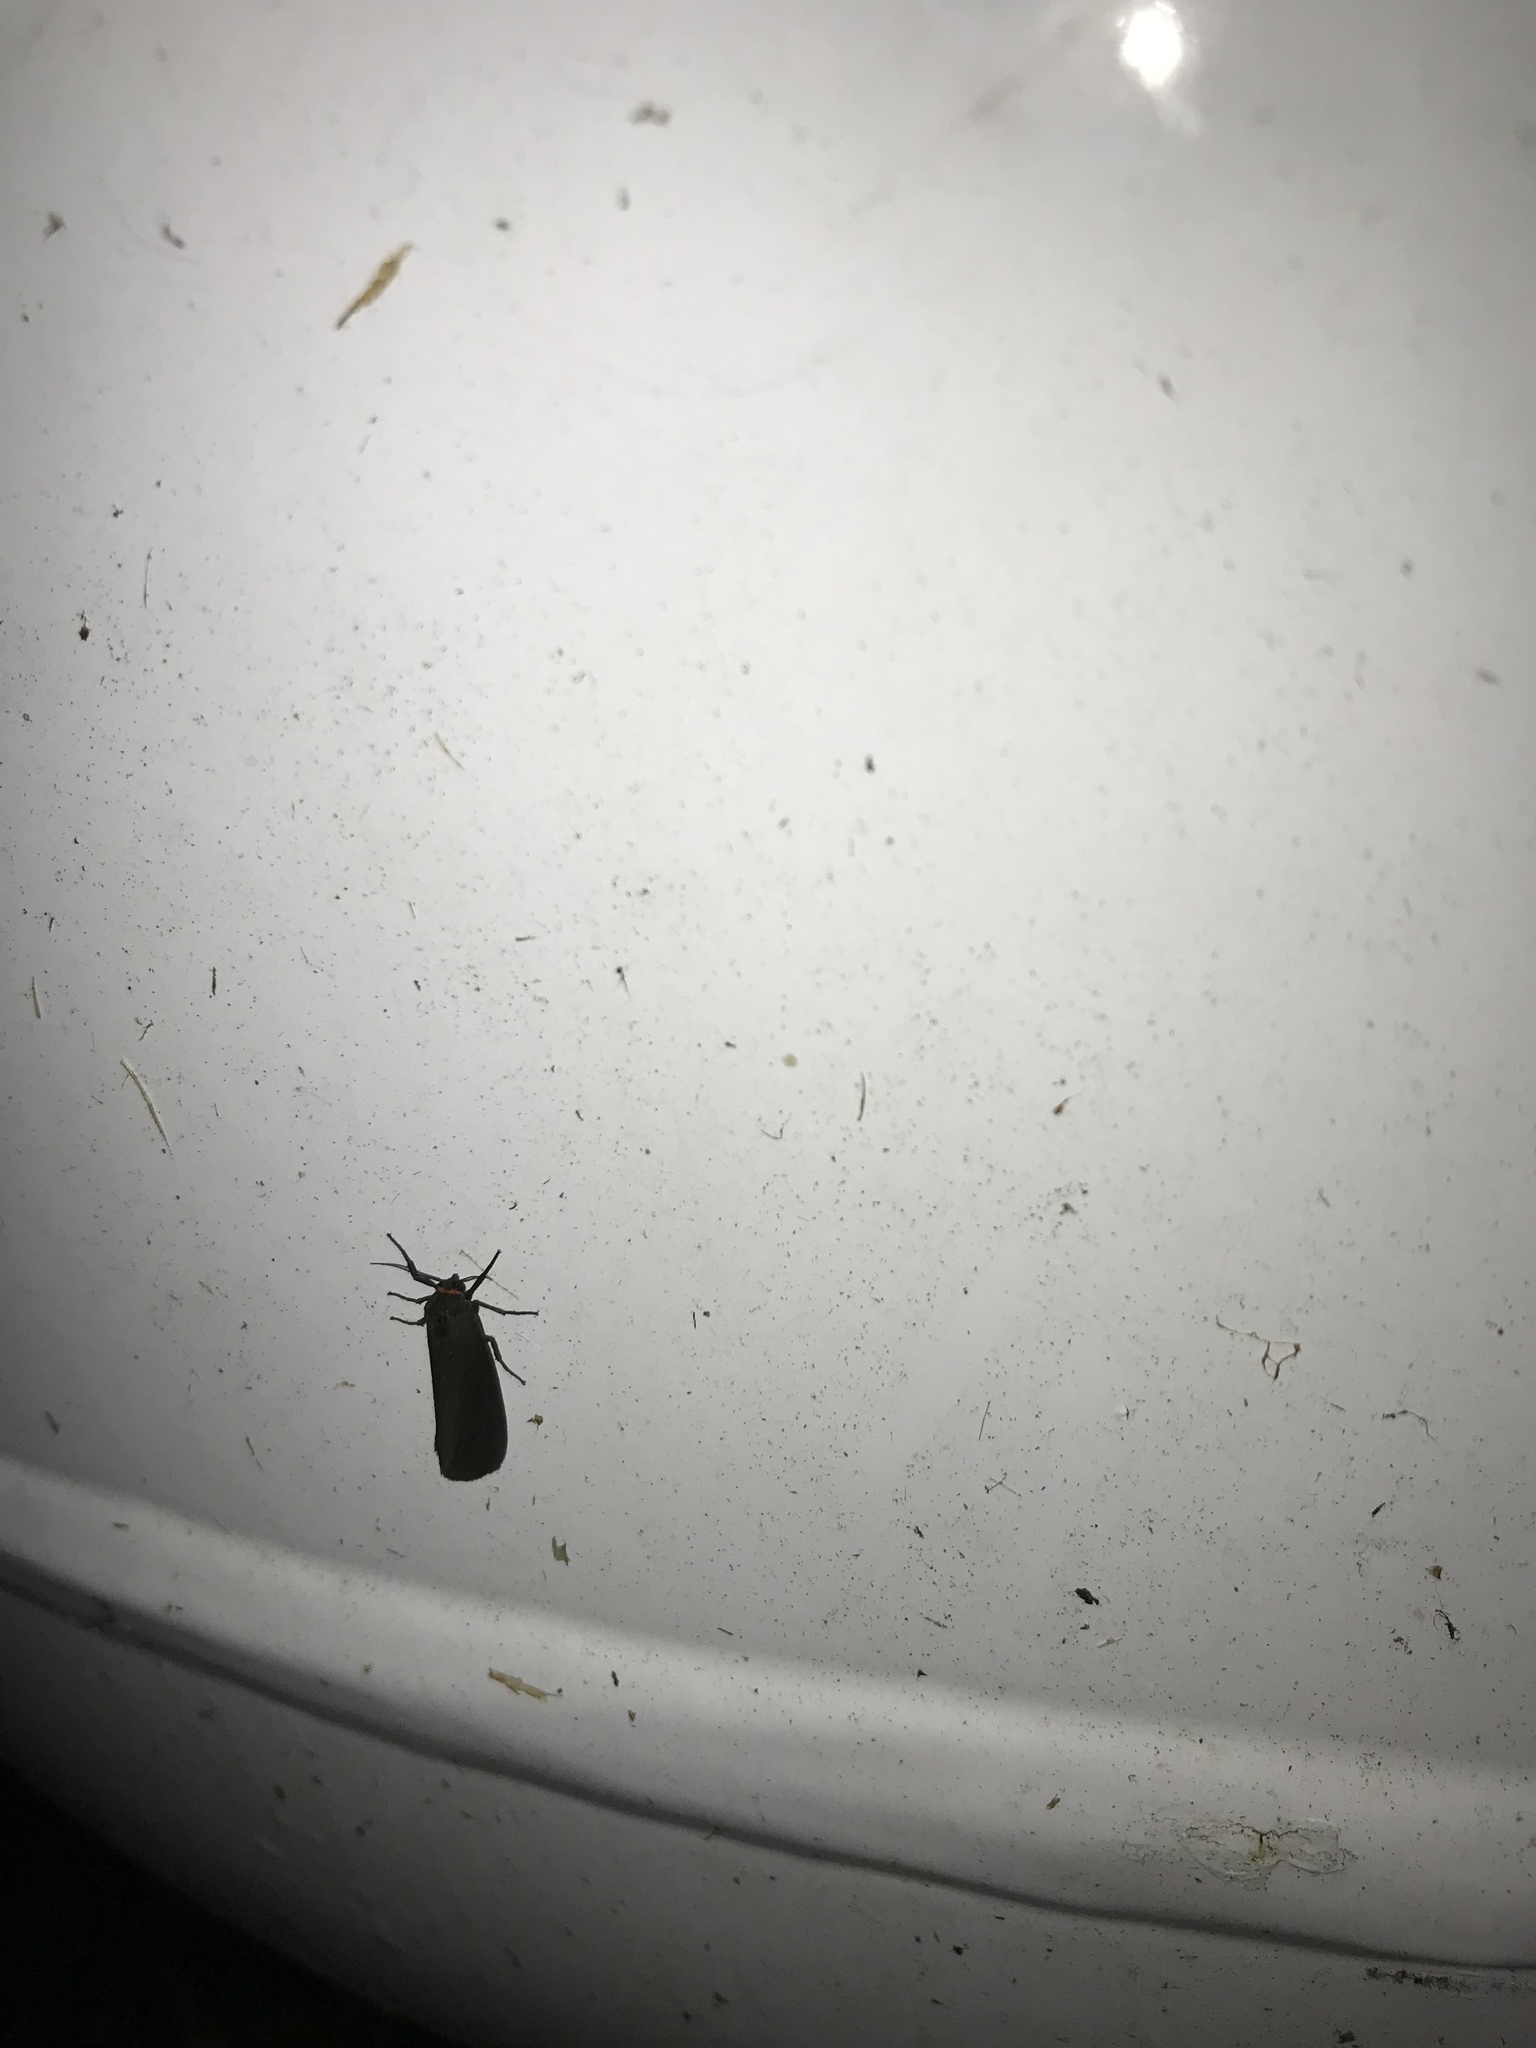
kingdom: Animalia
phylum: Arthropoda
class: Insecta
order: Lepidoptera
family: Erebidae
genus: Virbia
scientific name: Virbia laeta
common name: Joyful holomelina moth
